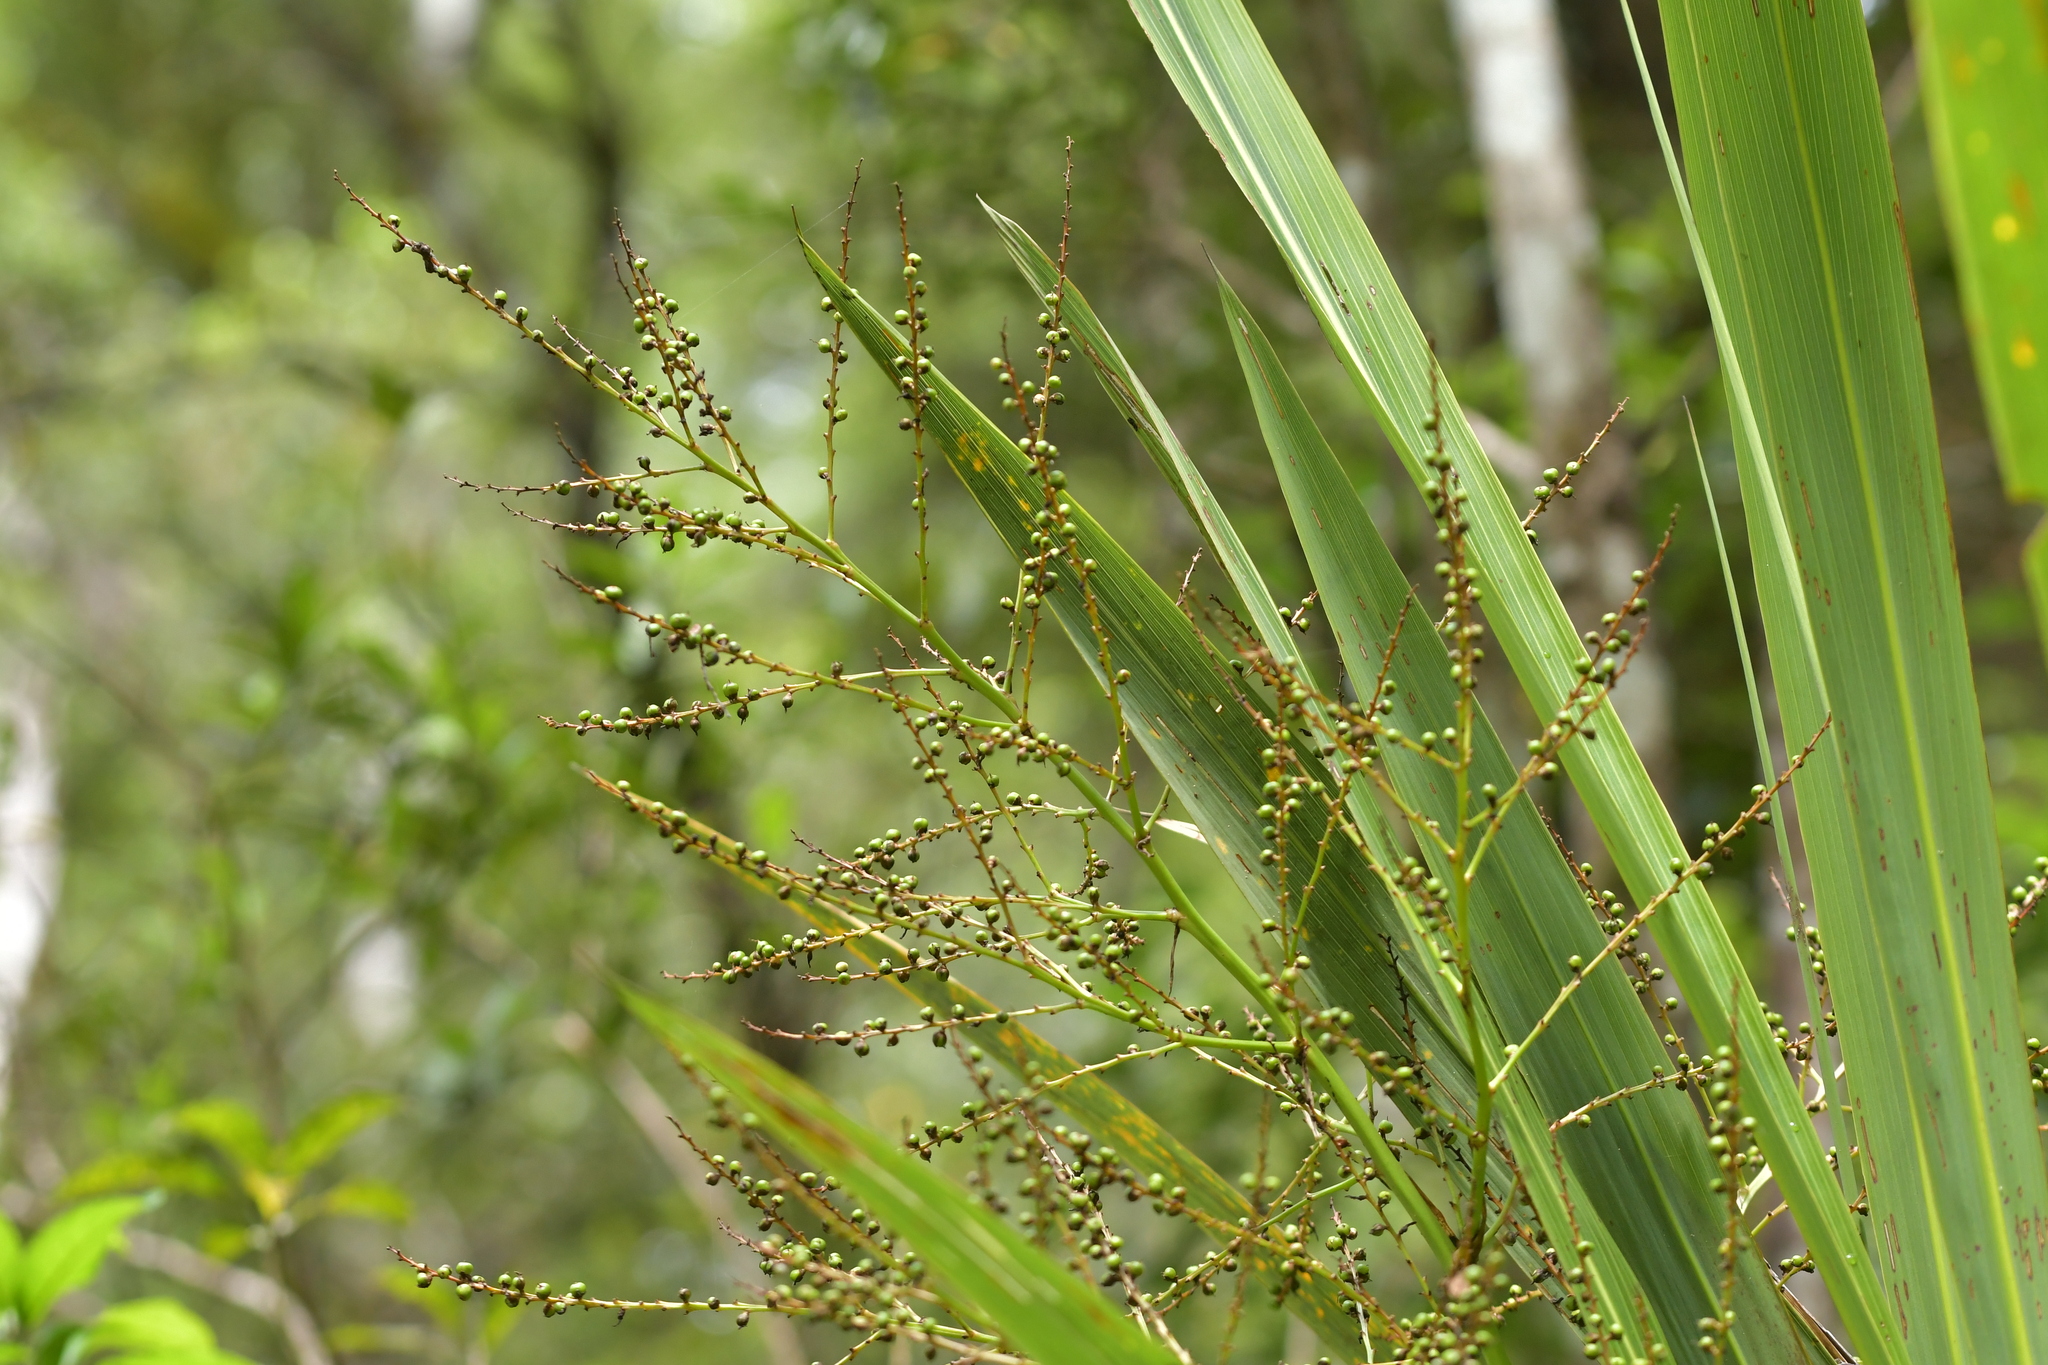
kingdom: Plantae
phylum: Tracheophyta
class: Liliopsida
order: Asparagales
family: Asparagaceae
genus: Cordyline
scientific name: Cordyline banksii
